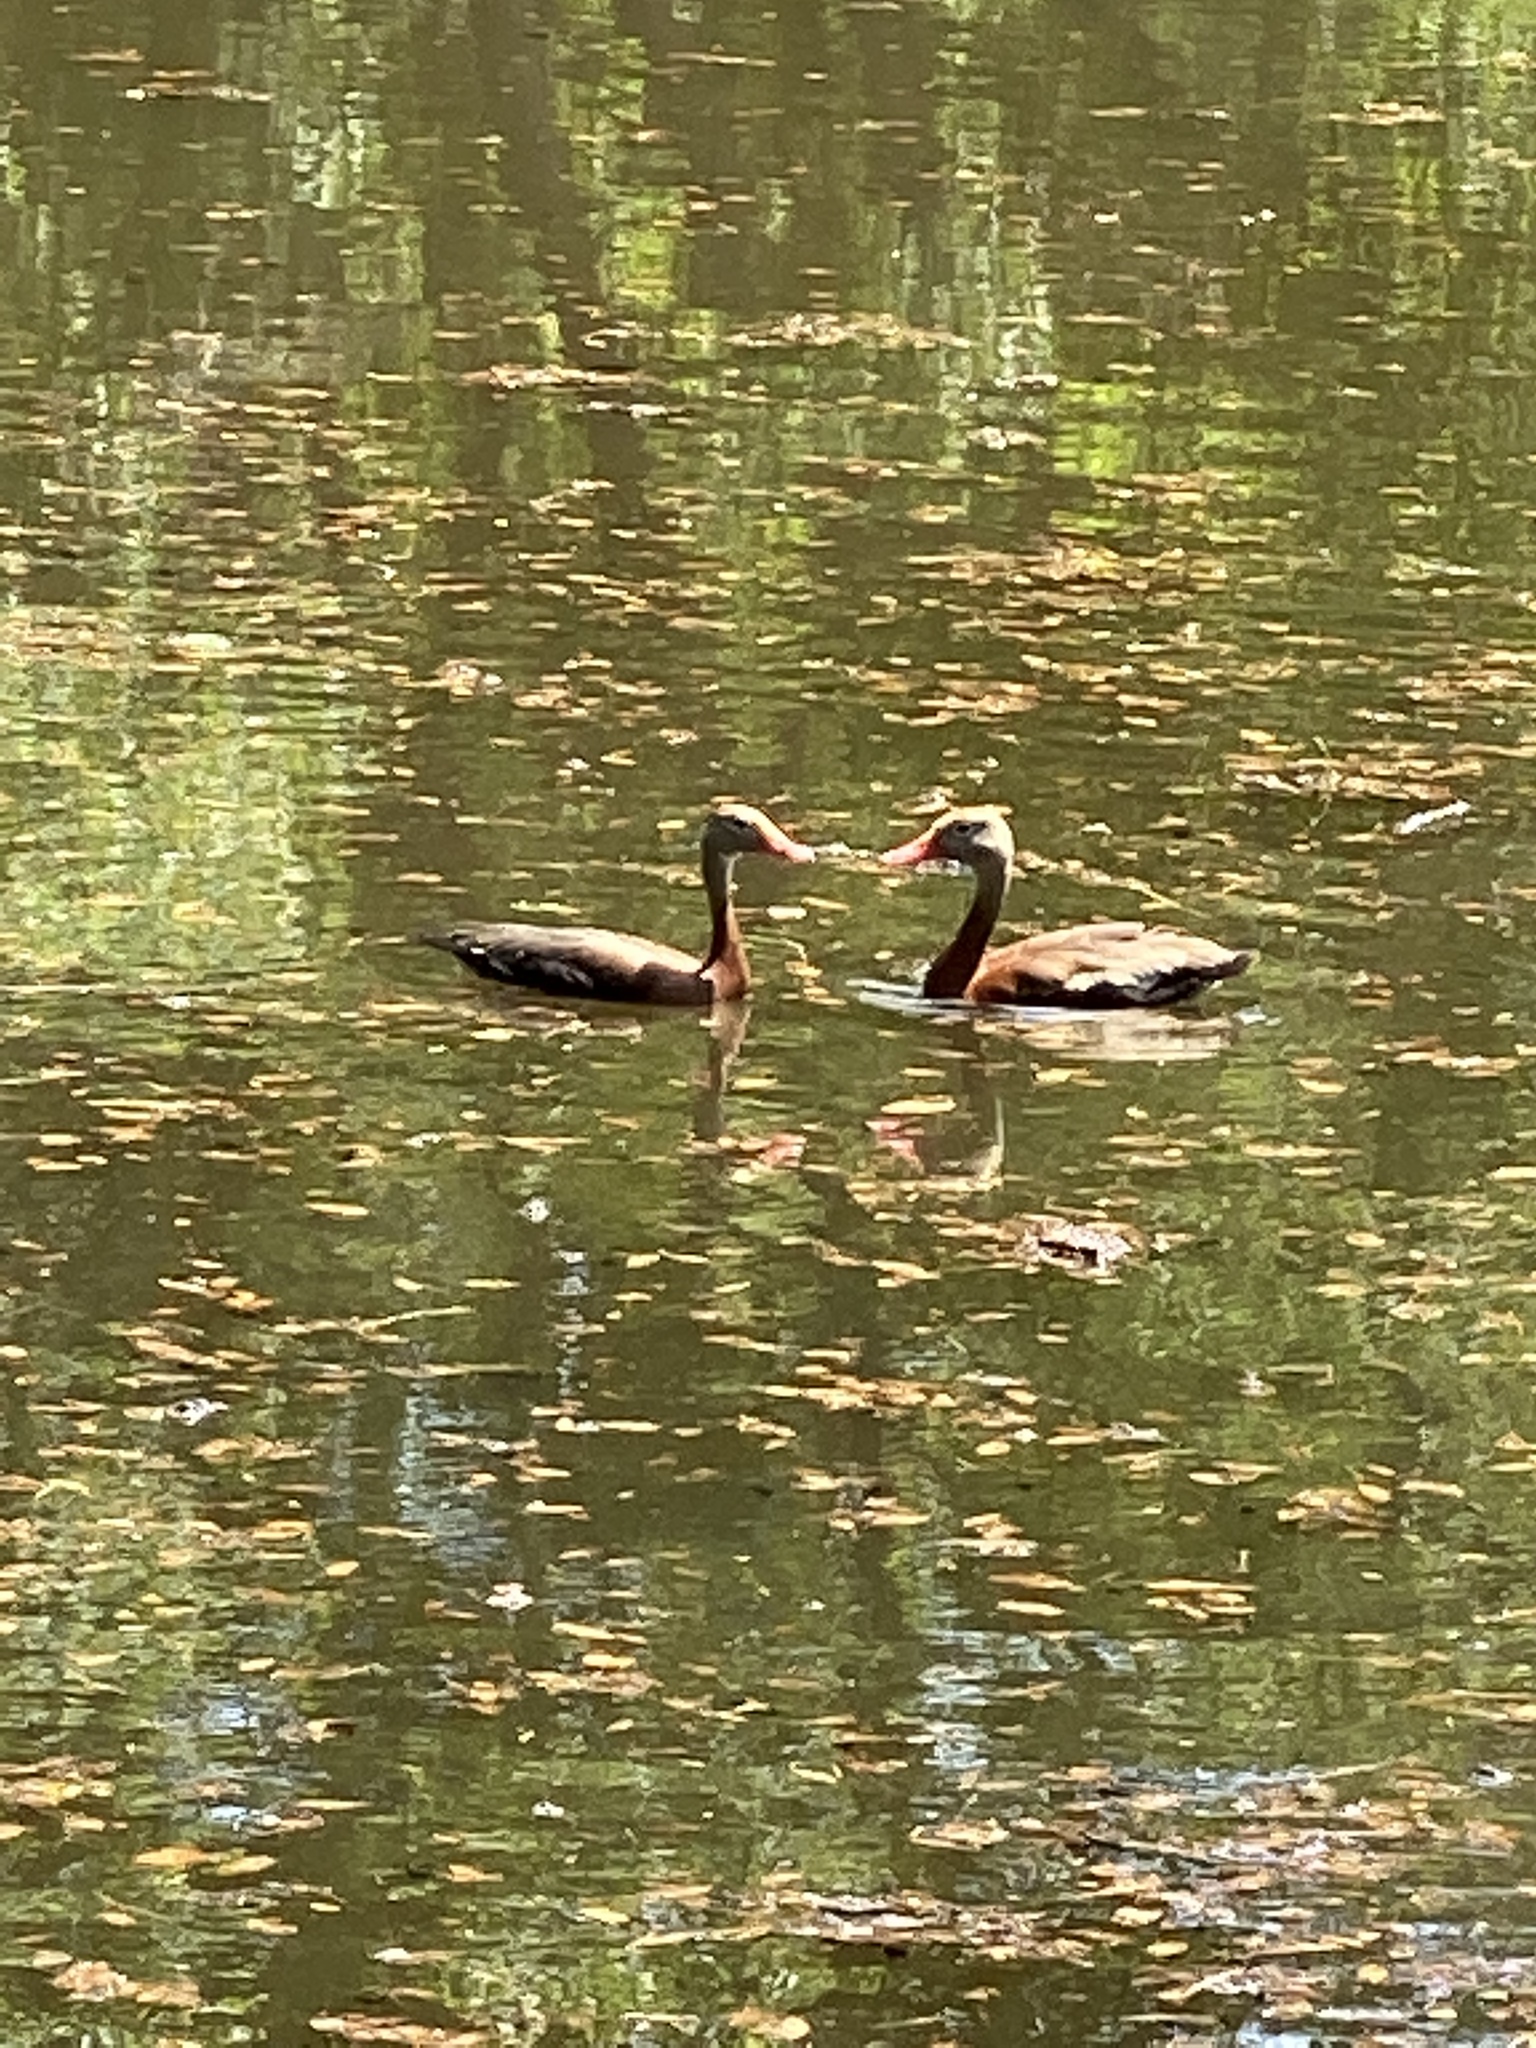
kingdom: Animalia
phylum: Chordata
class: Aves
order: Anseriformes
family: Anatidae
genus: Dendrocygna
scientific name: Dendrocygna autumnalis
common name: Black-bellied whistling duck
